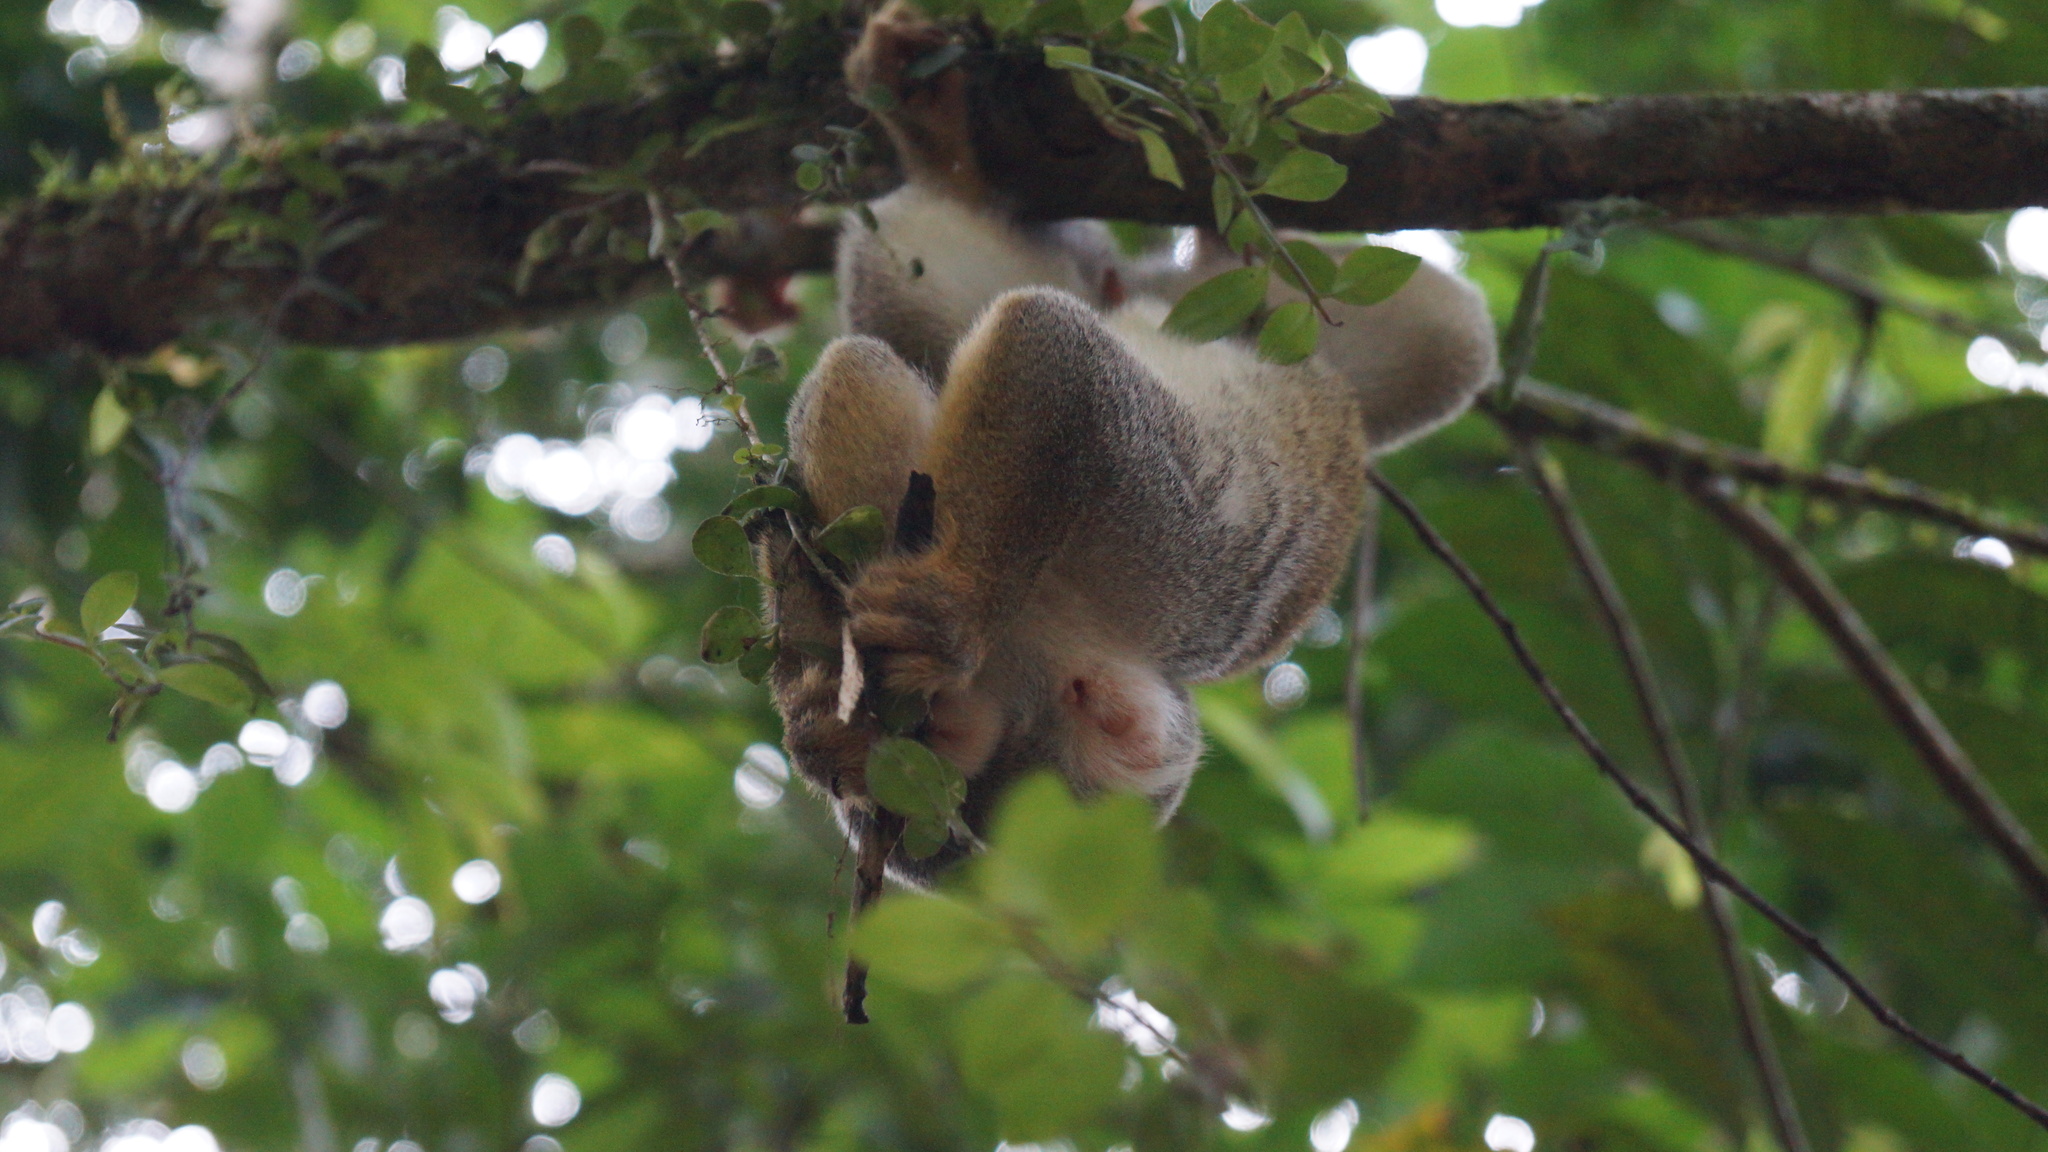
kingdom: Animalia
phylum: Chordata
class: Mammalia
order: Primates
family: Cebidae
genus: Saimiri
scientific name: Saimiri cassiquiarensis
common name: Humboldt’s squirrel monkey
